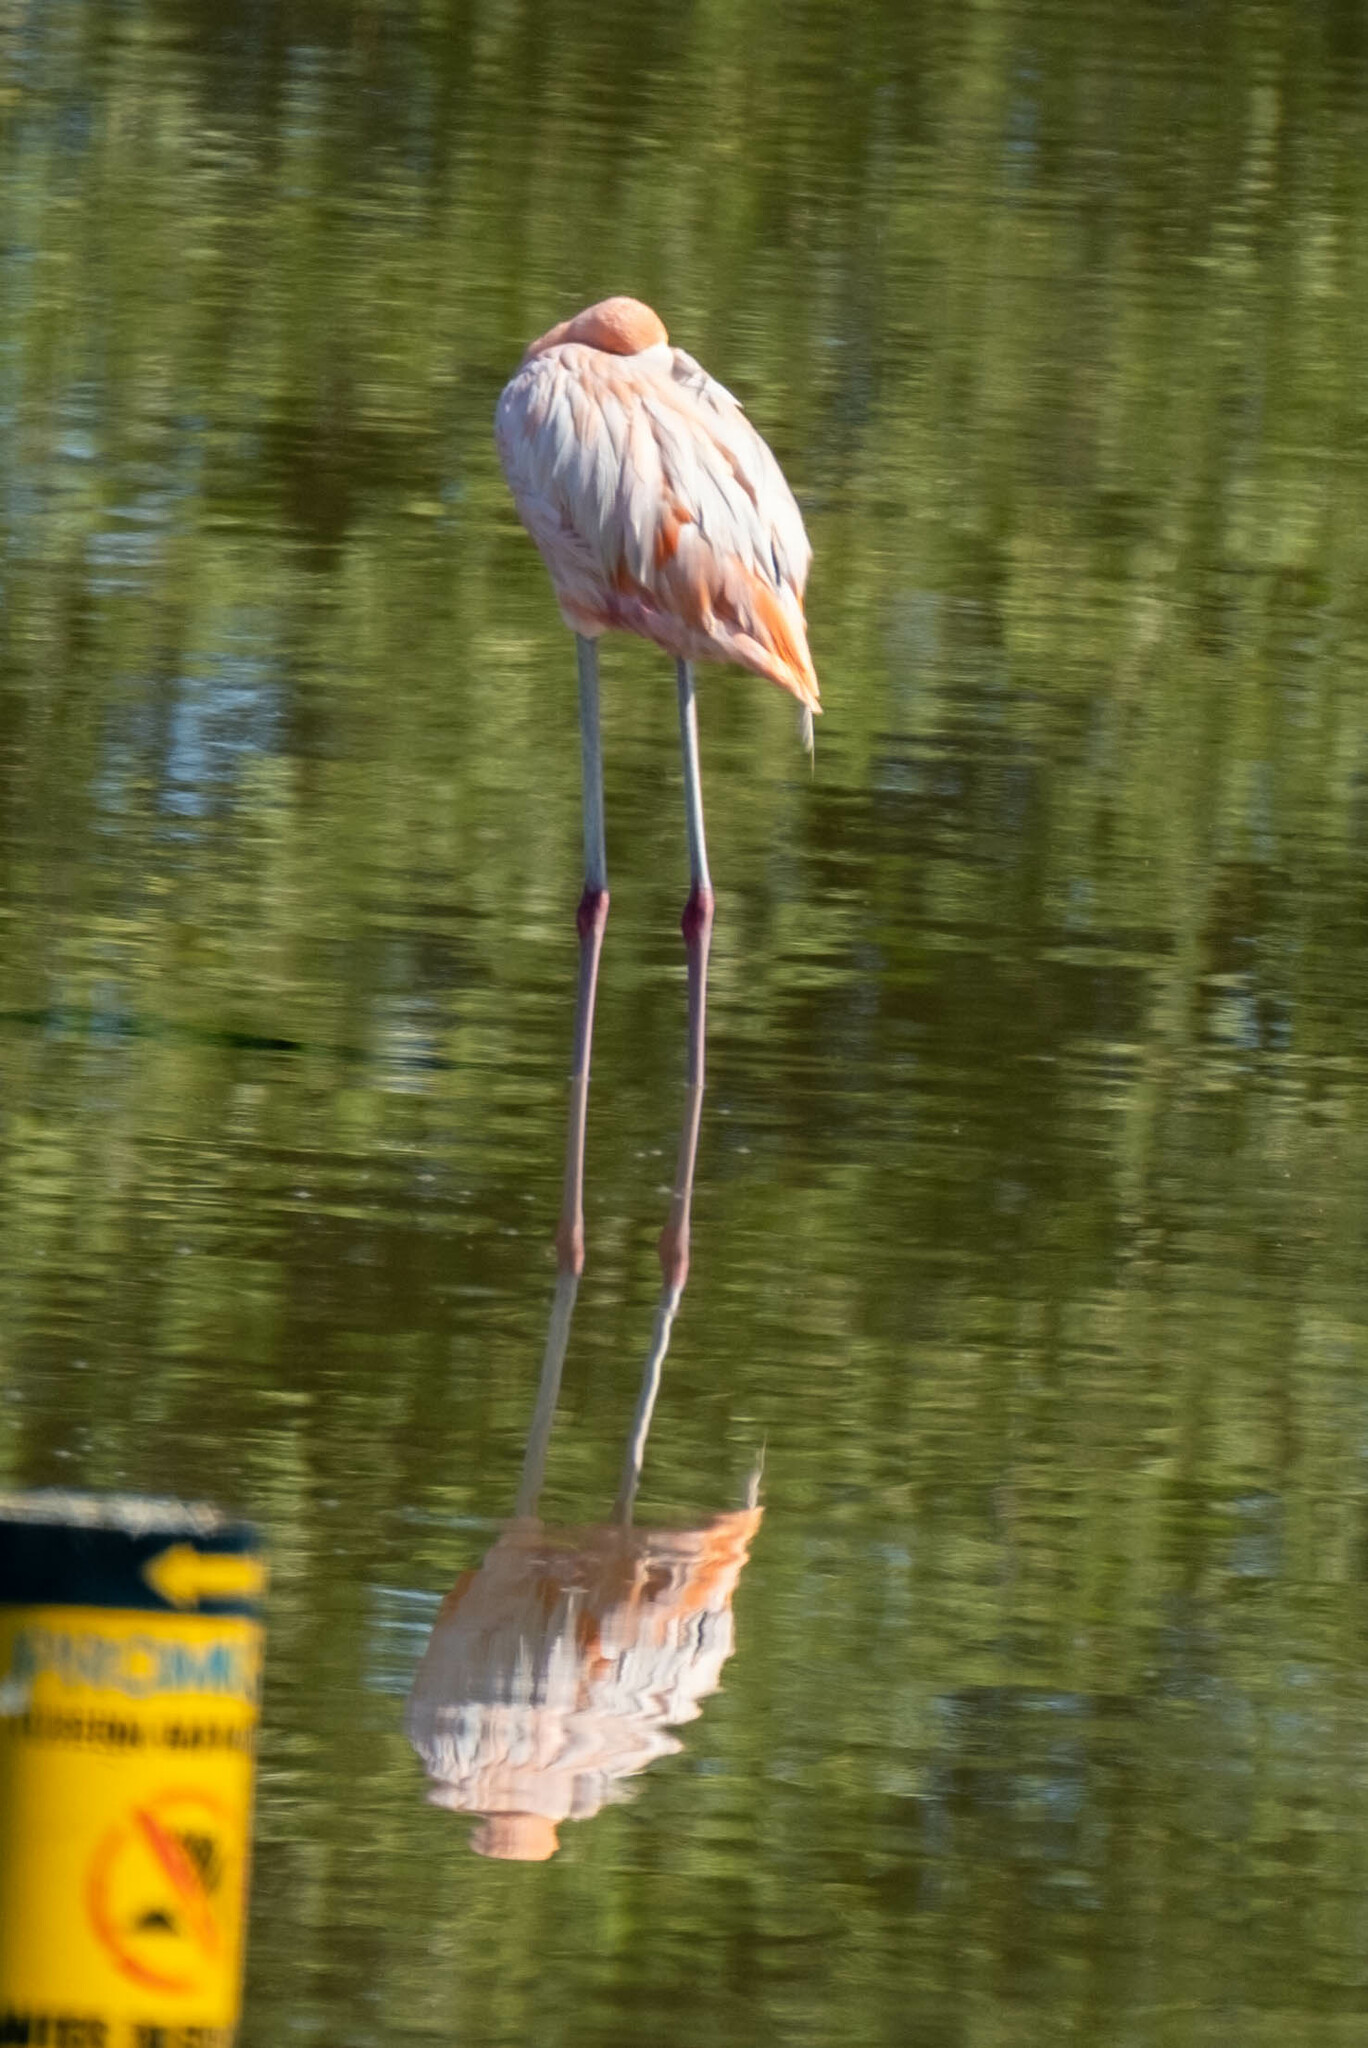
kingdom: Animalia
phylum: Chordata
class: Aves
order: Phoenicopteriformes
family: Phoenicopteridae
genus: Phoenicopterus
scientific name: Phoenicopterus ruber
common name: American flamingo
